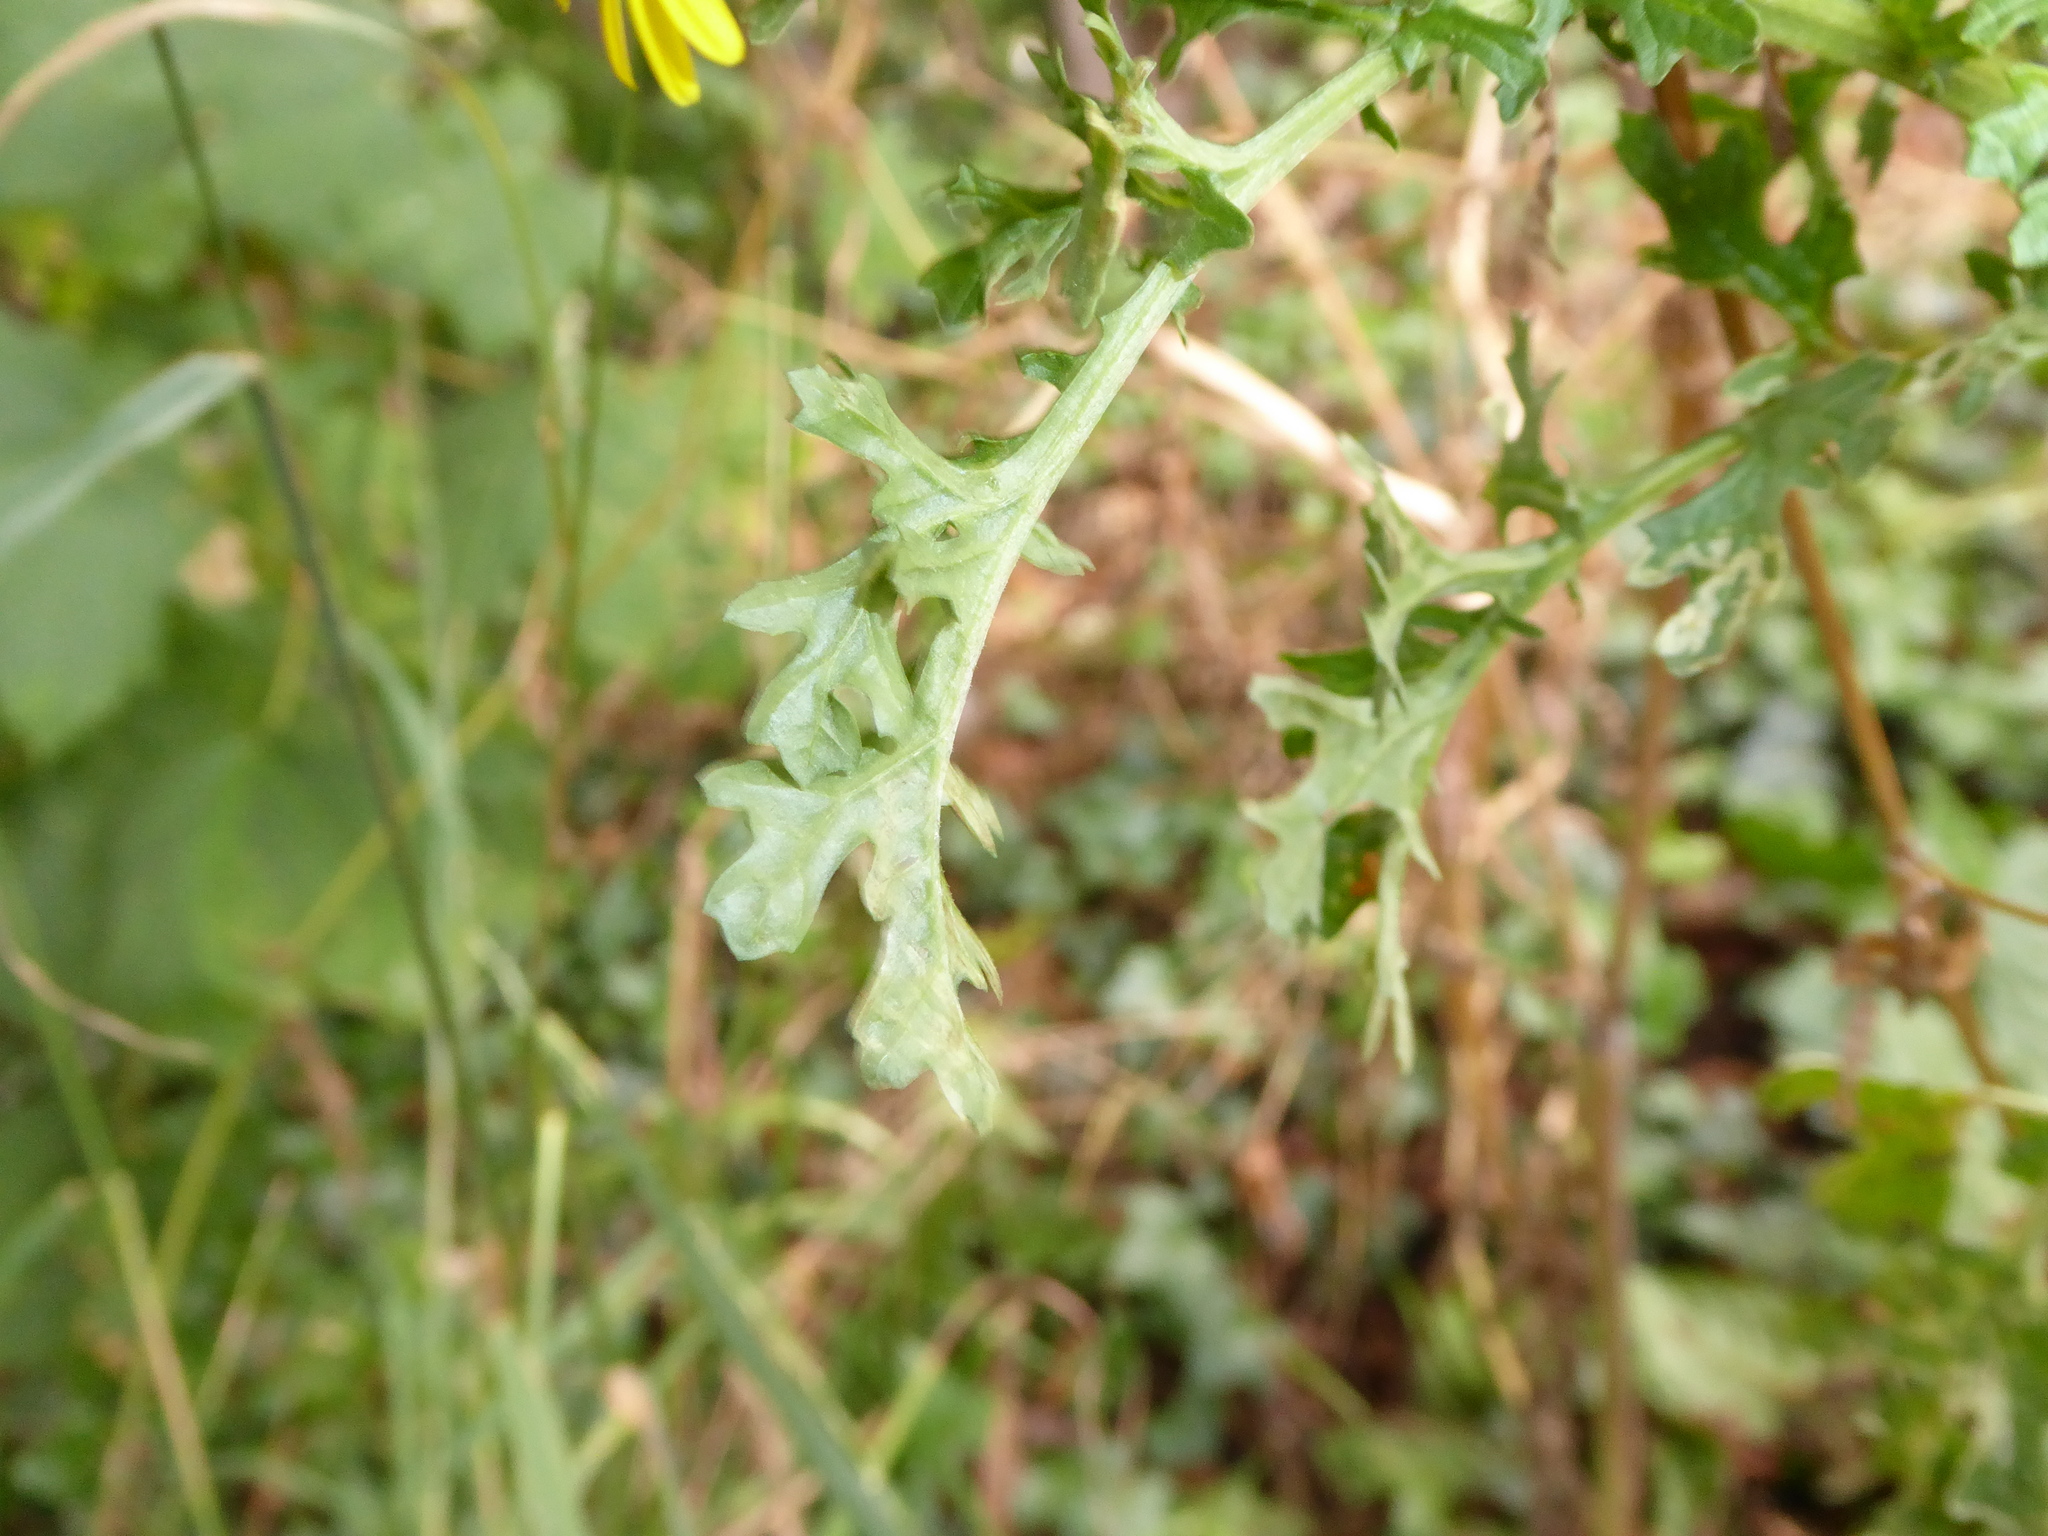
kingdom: Plantae
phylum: Tracheophyta
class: Magnoliopsida
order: Asterales
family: Asteraceae
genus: Jacobaea
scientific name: Jacobaea vulgaris
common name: Stinking willie
